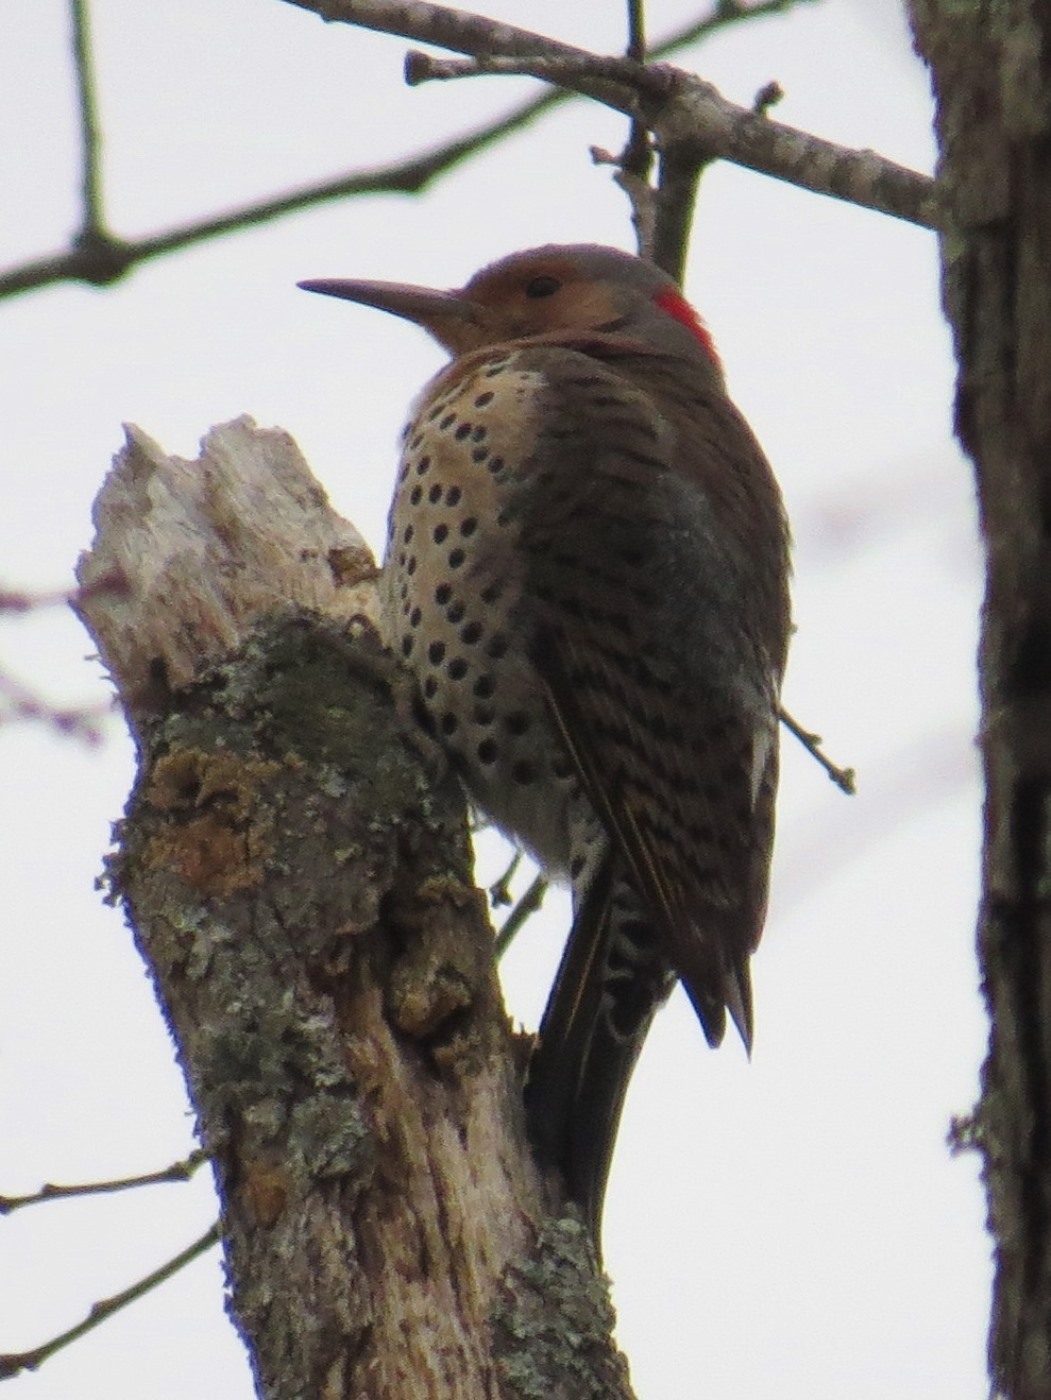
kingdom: Animalia
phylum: Chordata
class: Aves
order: Piciformes
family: Picidae
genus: Colaptes
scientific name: Colaptes auratus
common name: Northern flicker
